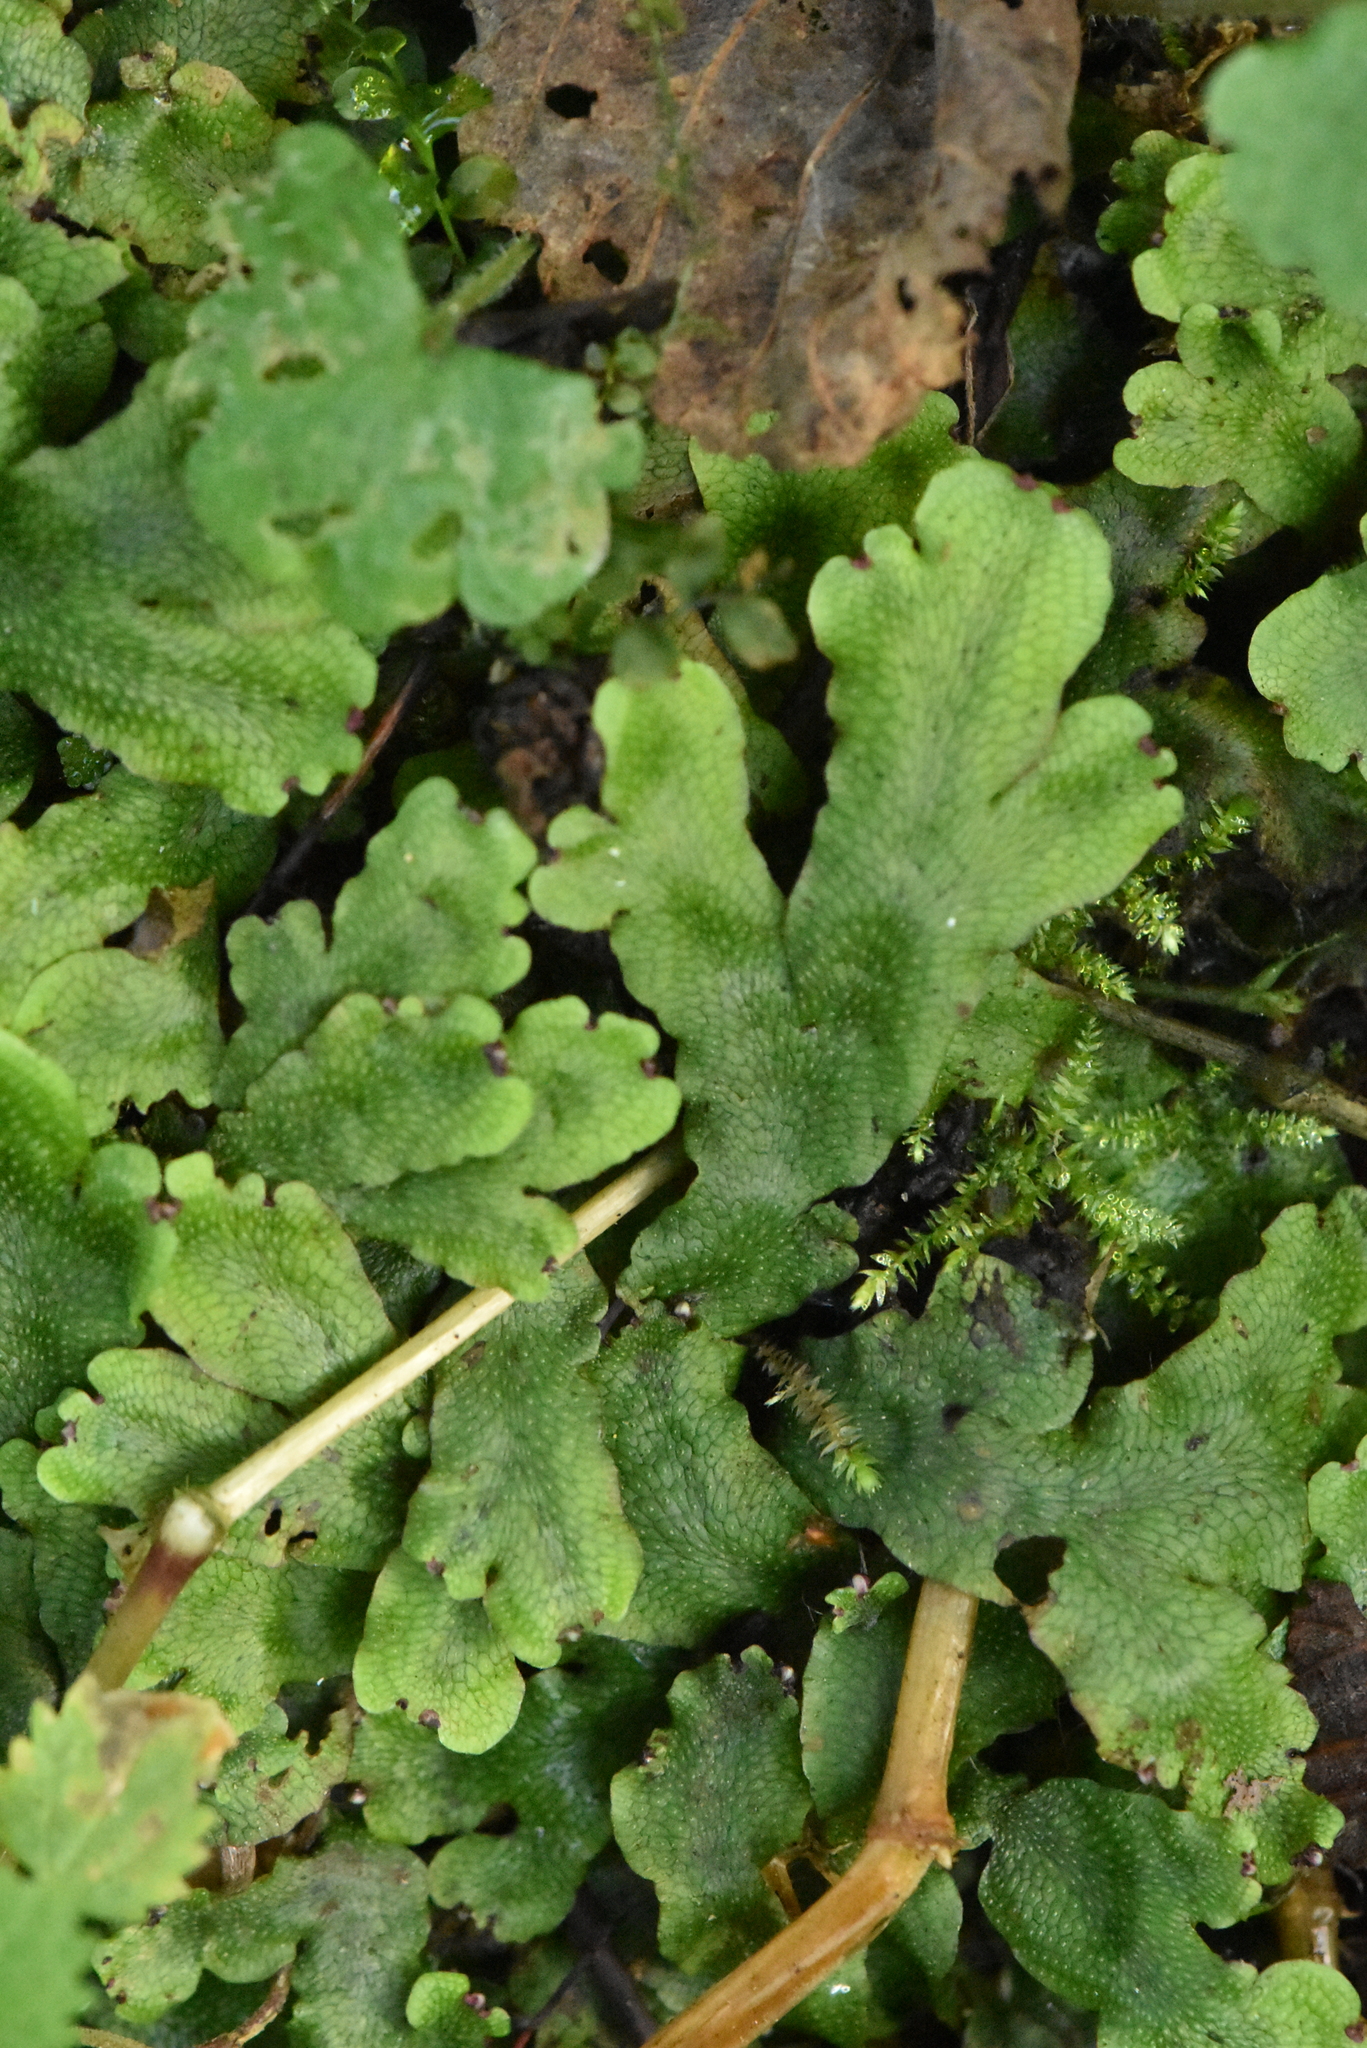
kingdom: Plantae
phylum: Marchantiophyta
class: Marchantiopsida
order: Marchantiales
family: Conocephalaceae
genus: Conocephalum
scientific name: Conocephalum salebrosum
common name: Cat-tongue liverwort
